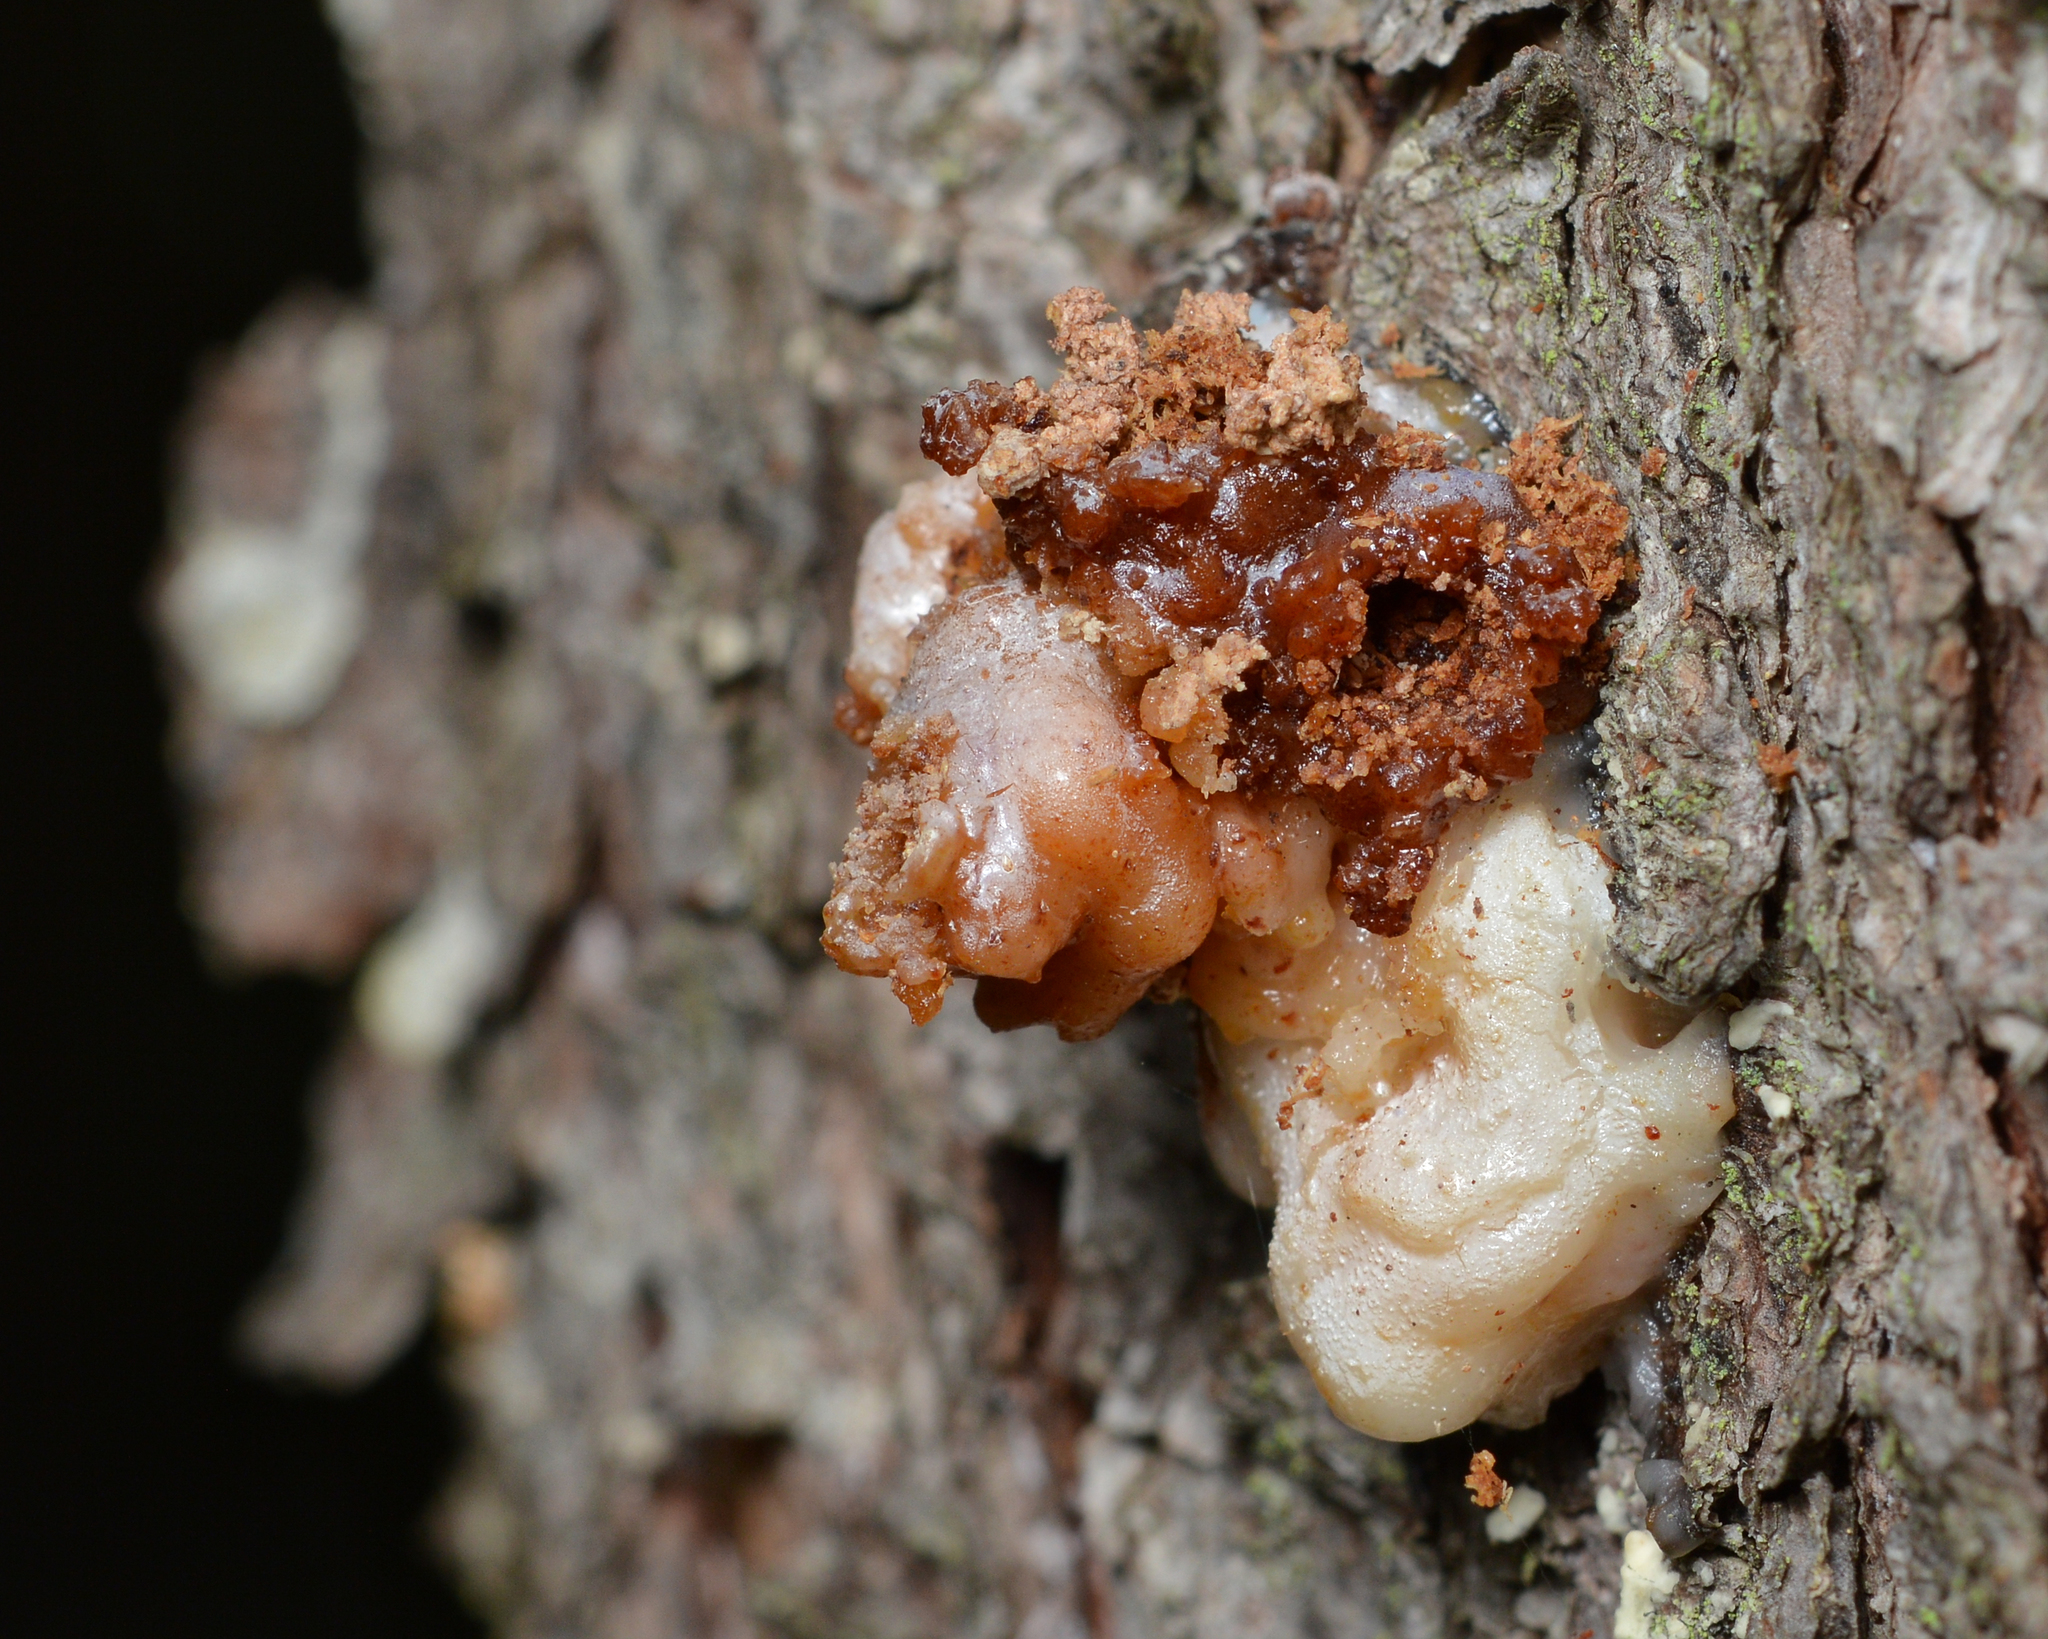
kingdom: Animalia
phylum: Arthropoda
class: Insecta
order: Lepidoptera
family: Sesiidae
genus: Synanthedon
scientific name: Synanthedon pini
